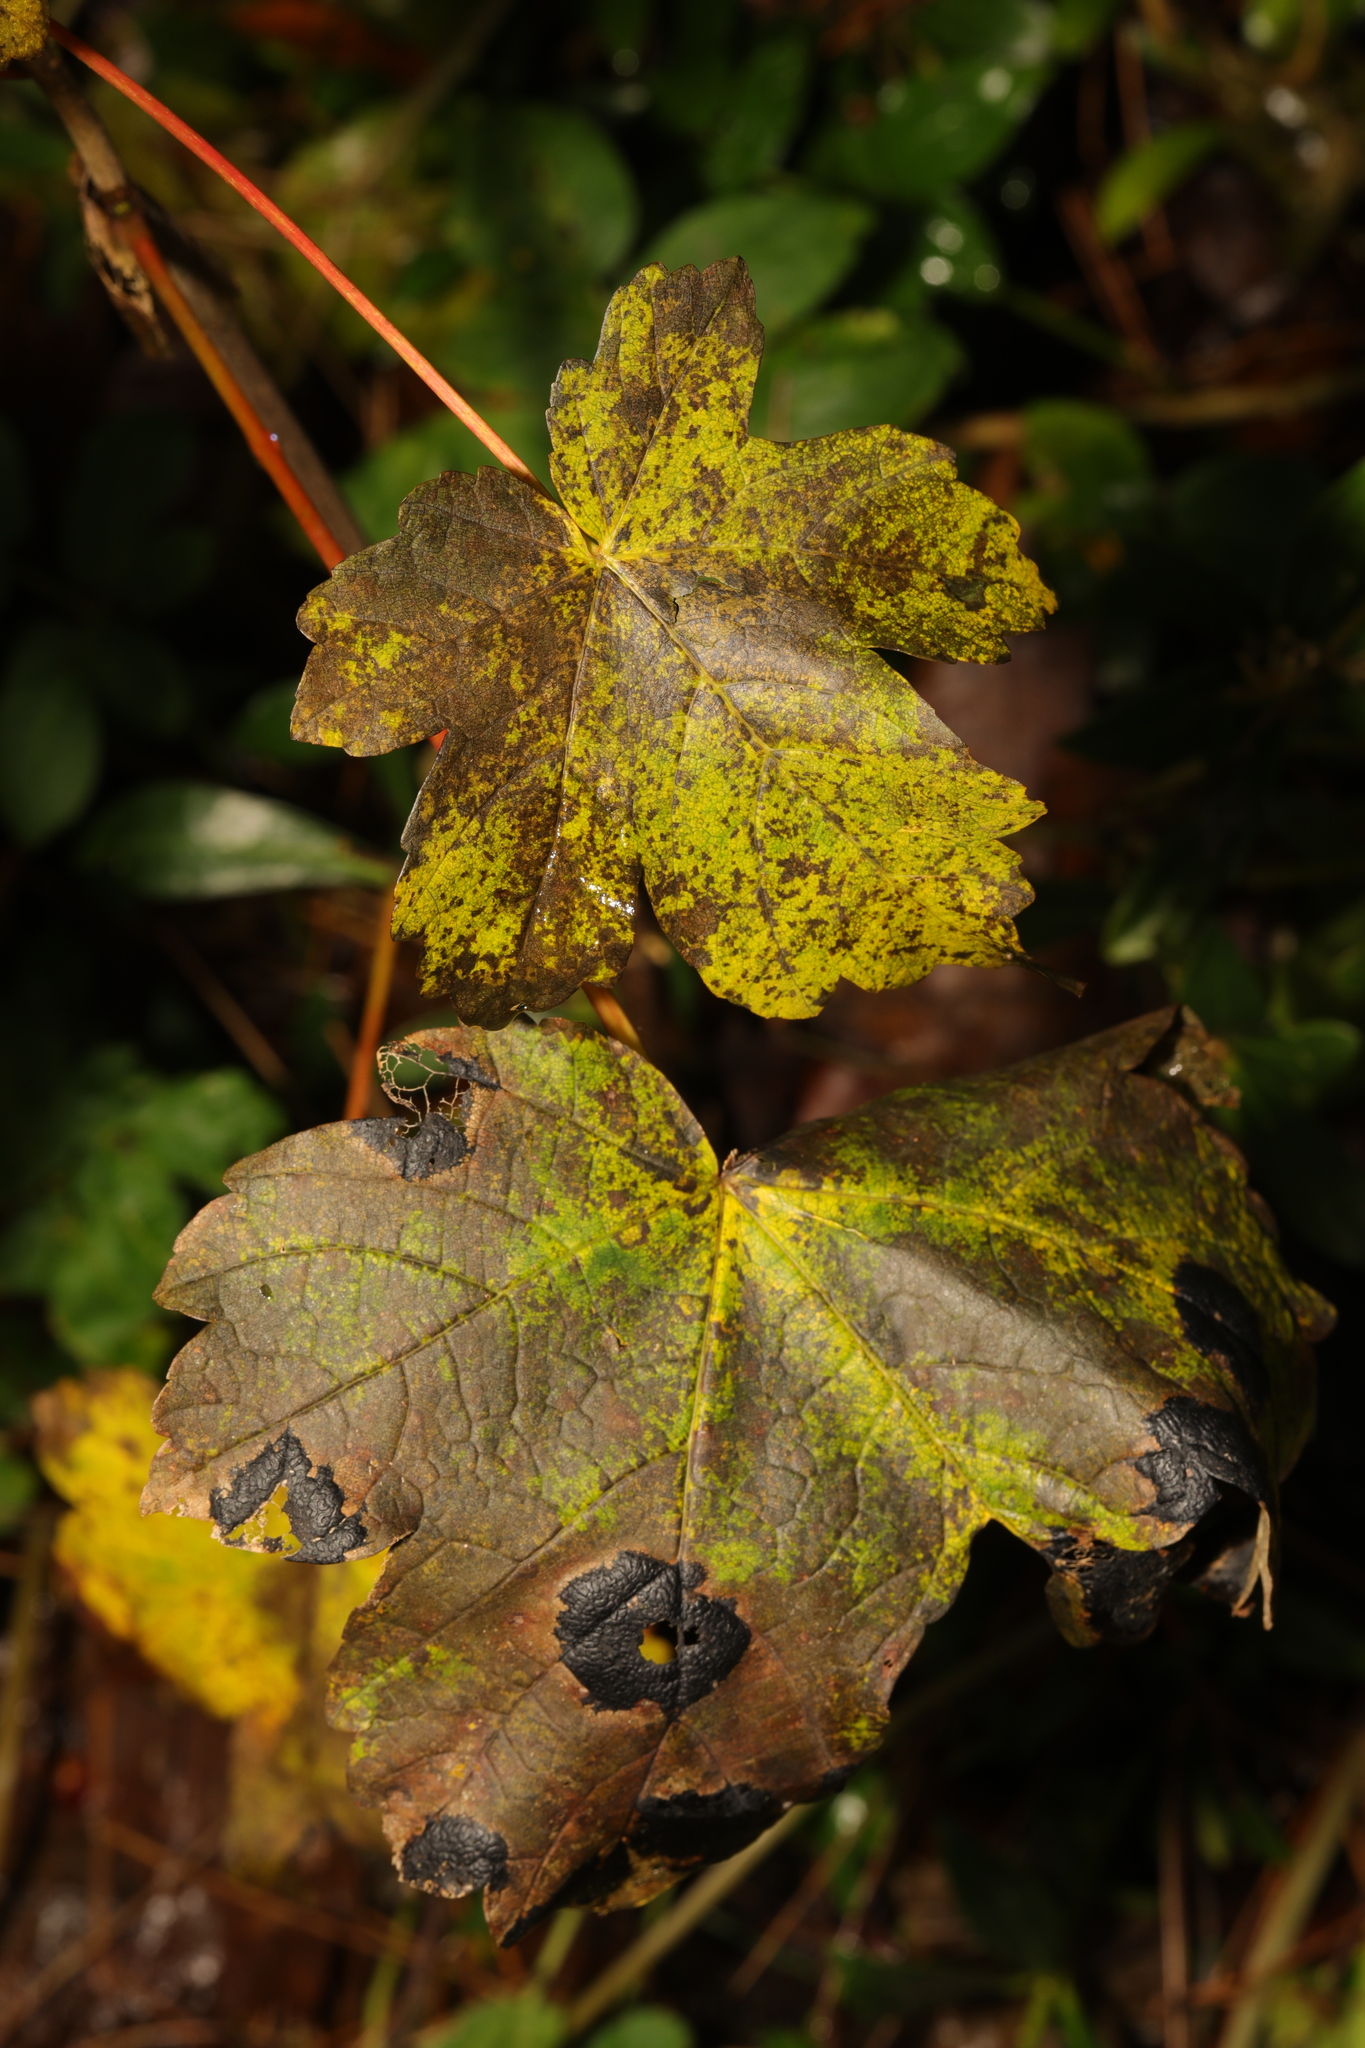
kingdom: Plantae
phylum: Tracheophyta
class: Magnoliopsida
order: Sapindales
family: Sapindaceae
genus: Acer
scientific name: Acer pseudoplatanus
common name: Sycamore
